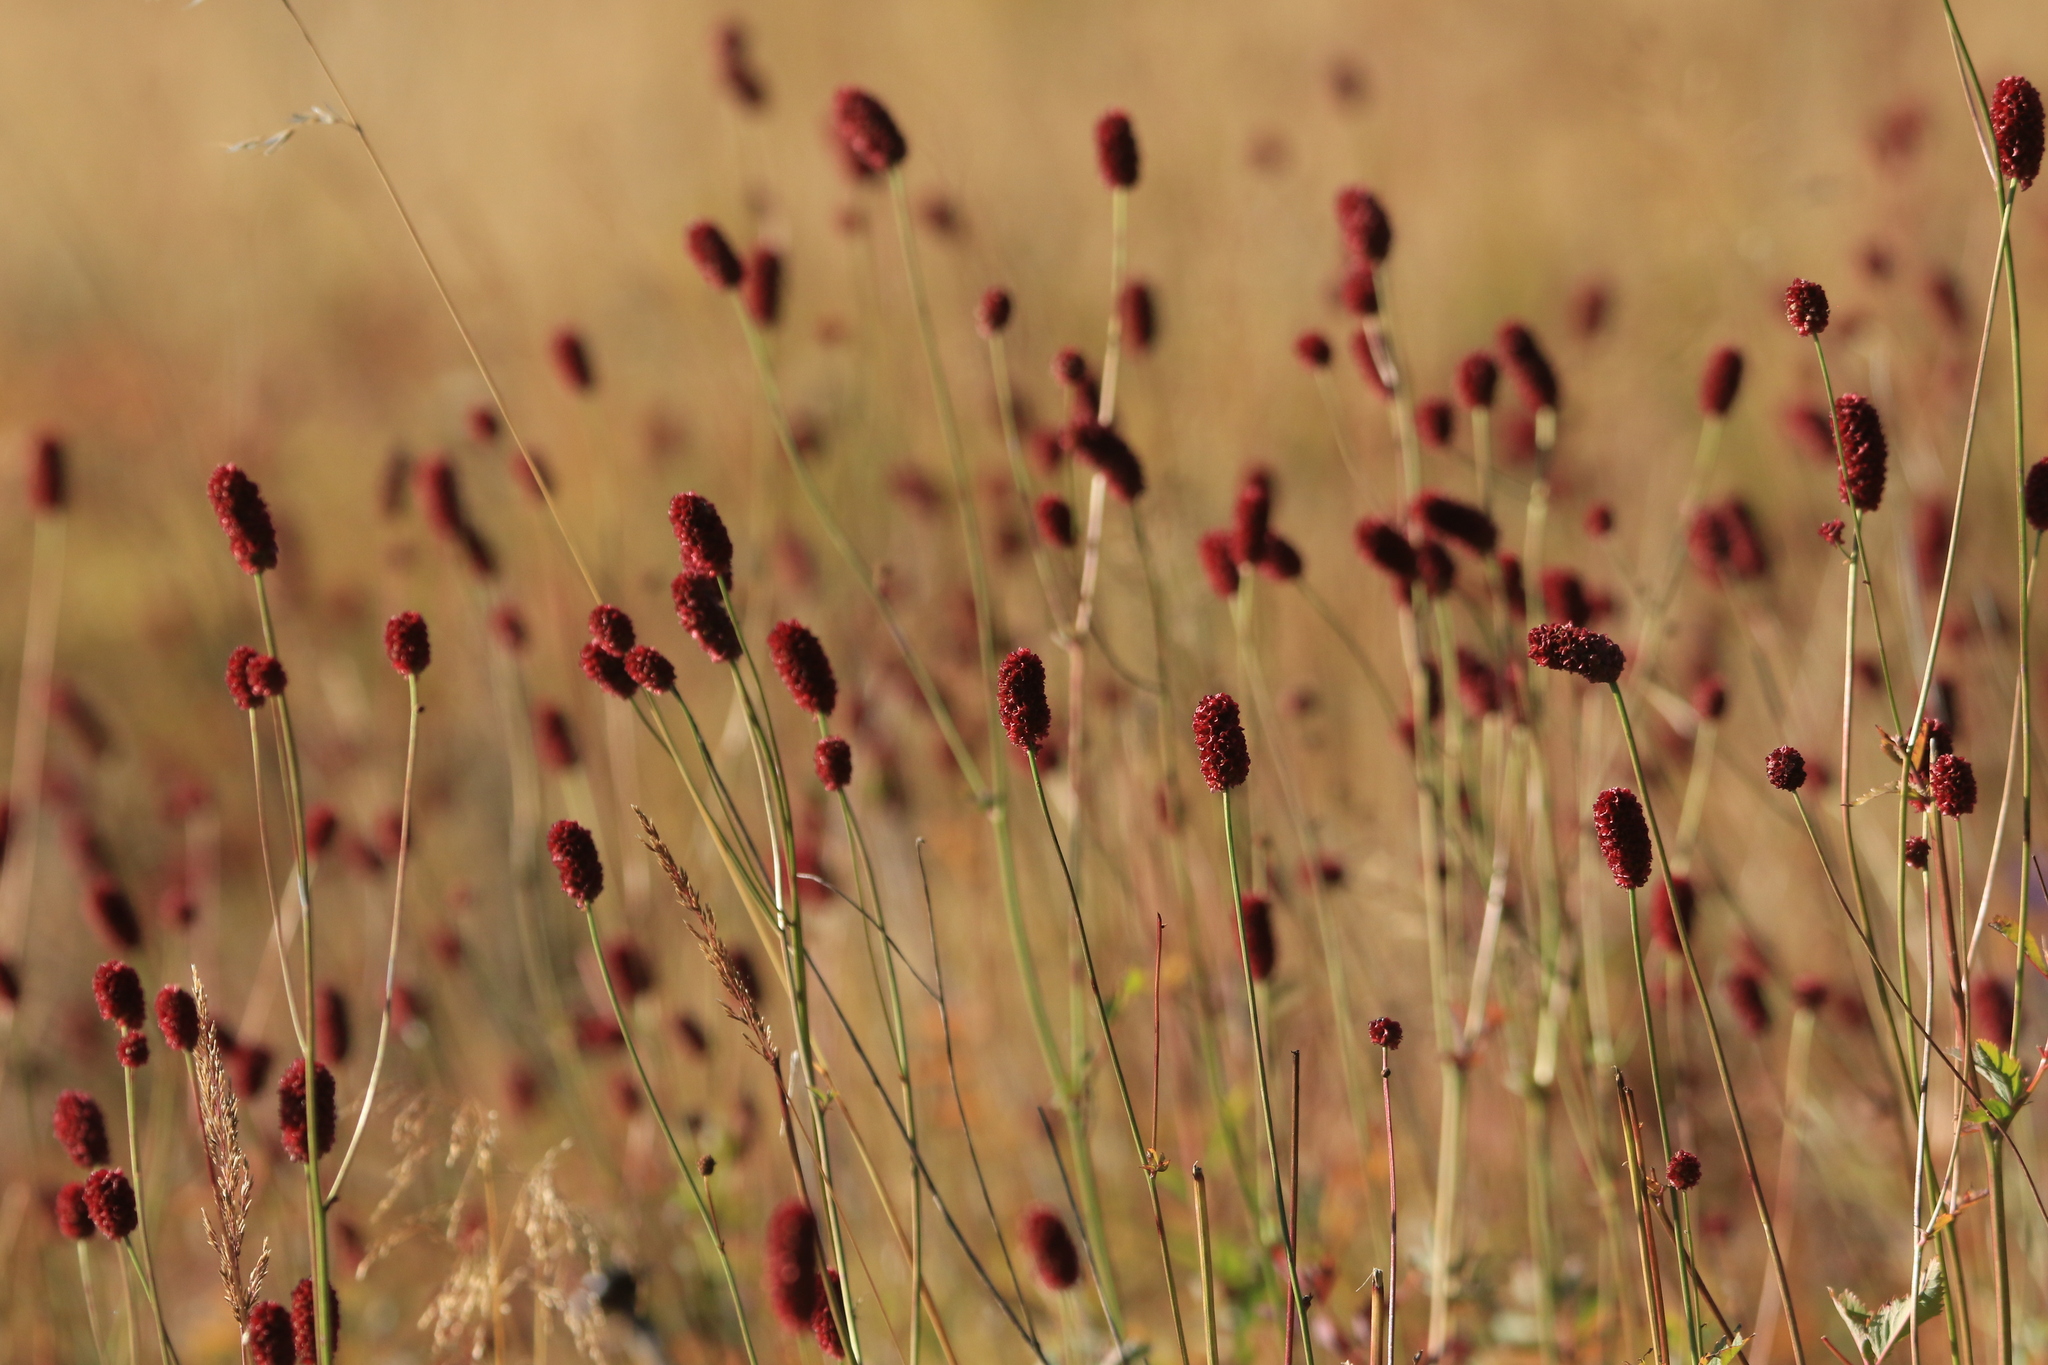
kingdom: Plantae
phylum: Tracheophyta
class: Magnoliopsida
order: Rosales
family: Rosaceae
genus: Sanguisorba
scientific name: Sanguisorba officinalis
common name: Great burnet
